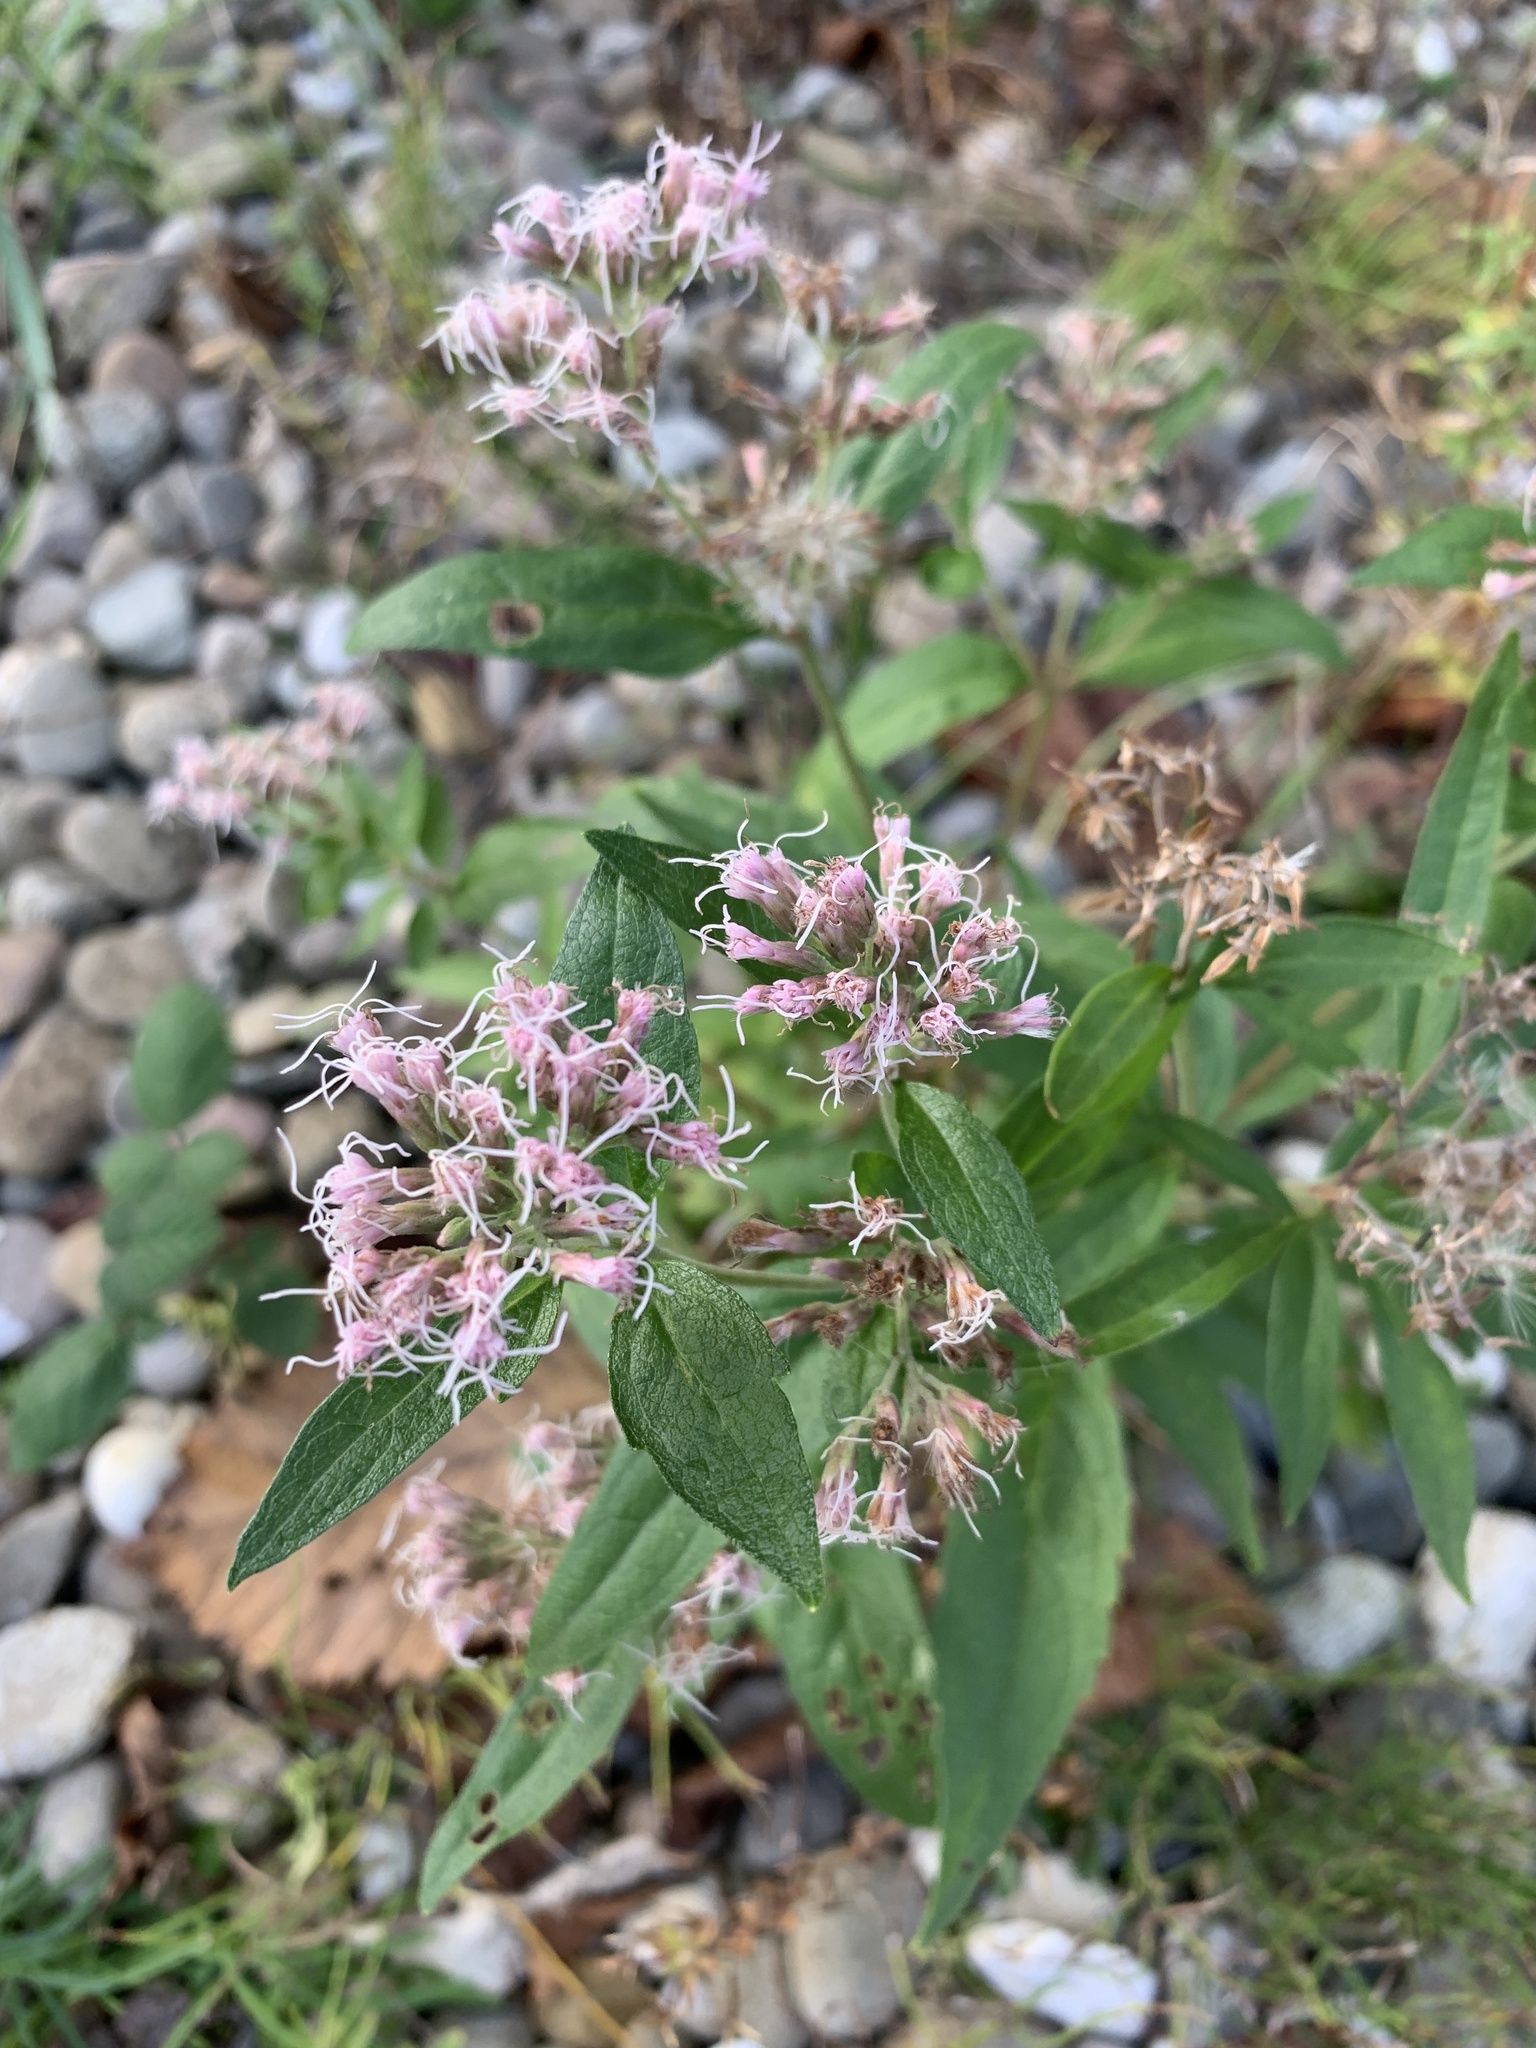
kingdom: Plantae
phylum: Tracheophyta
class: Magnoliopsida
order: Asterales
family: Asteraceae
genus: Eupatorium
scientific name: Eupatorium cannabinum
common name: Hemp-agrimony
